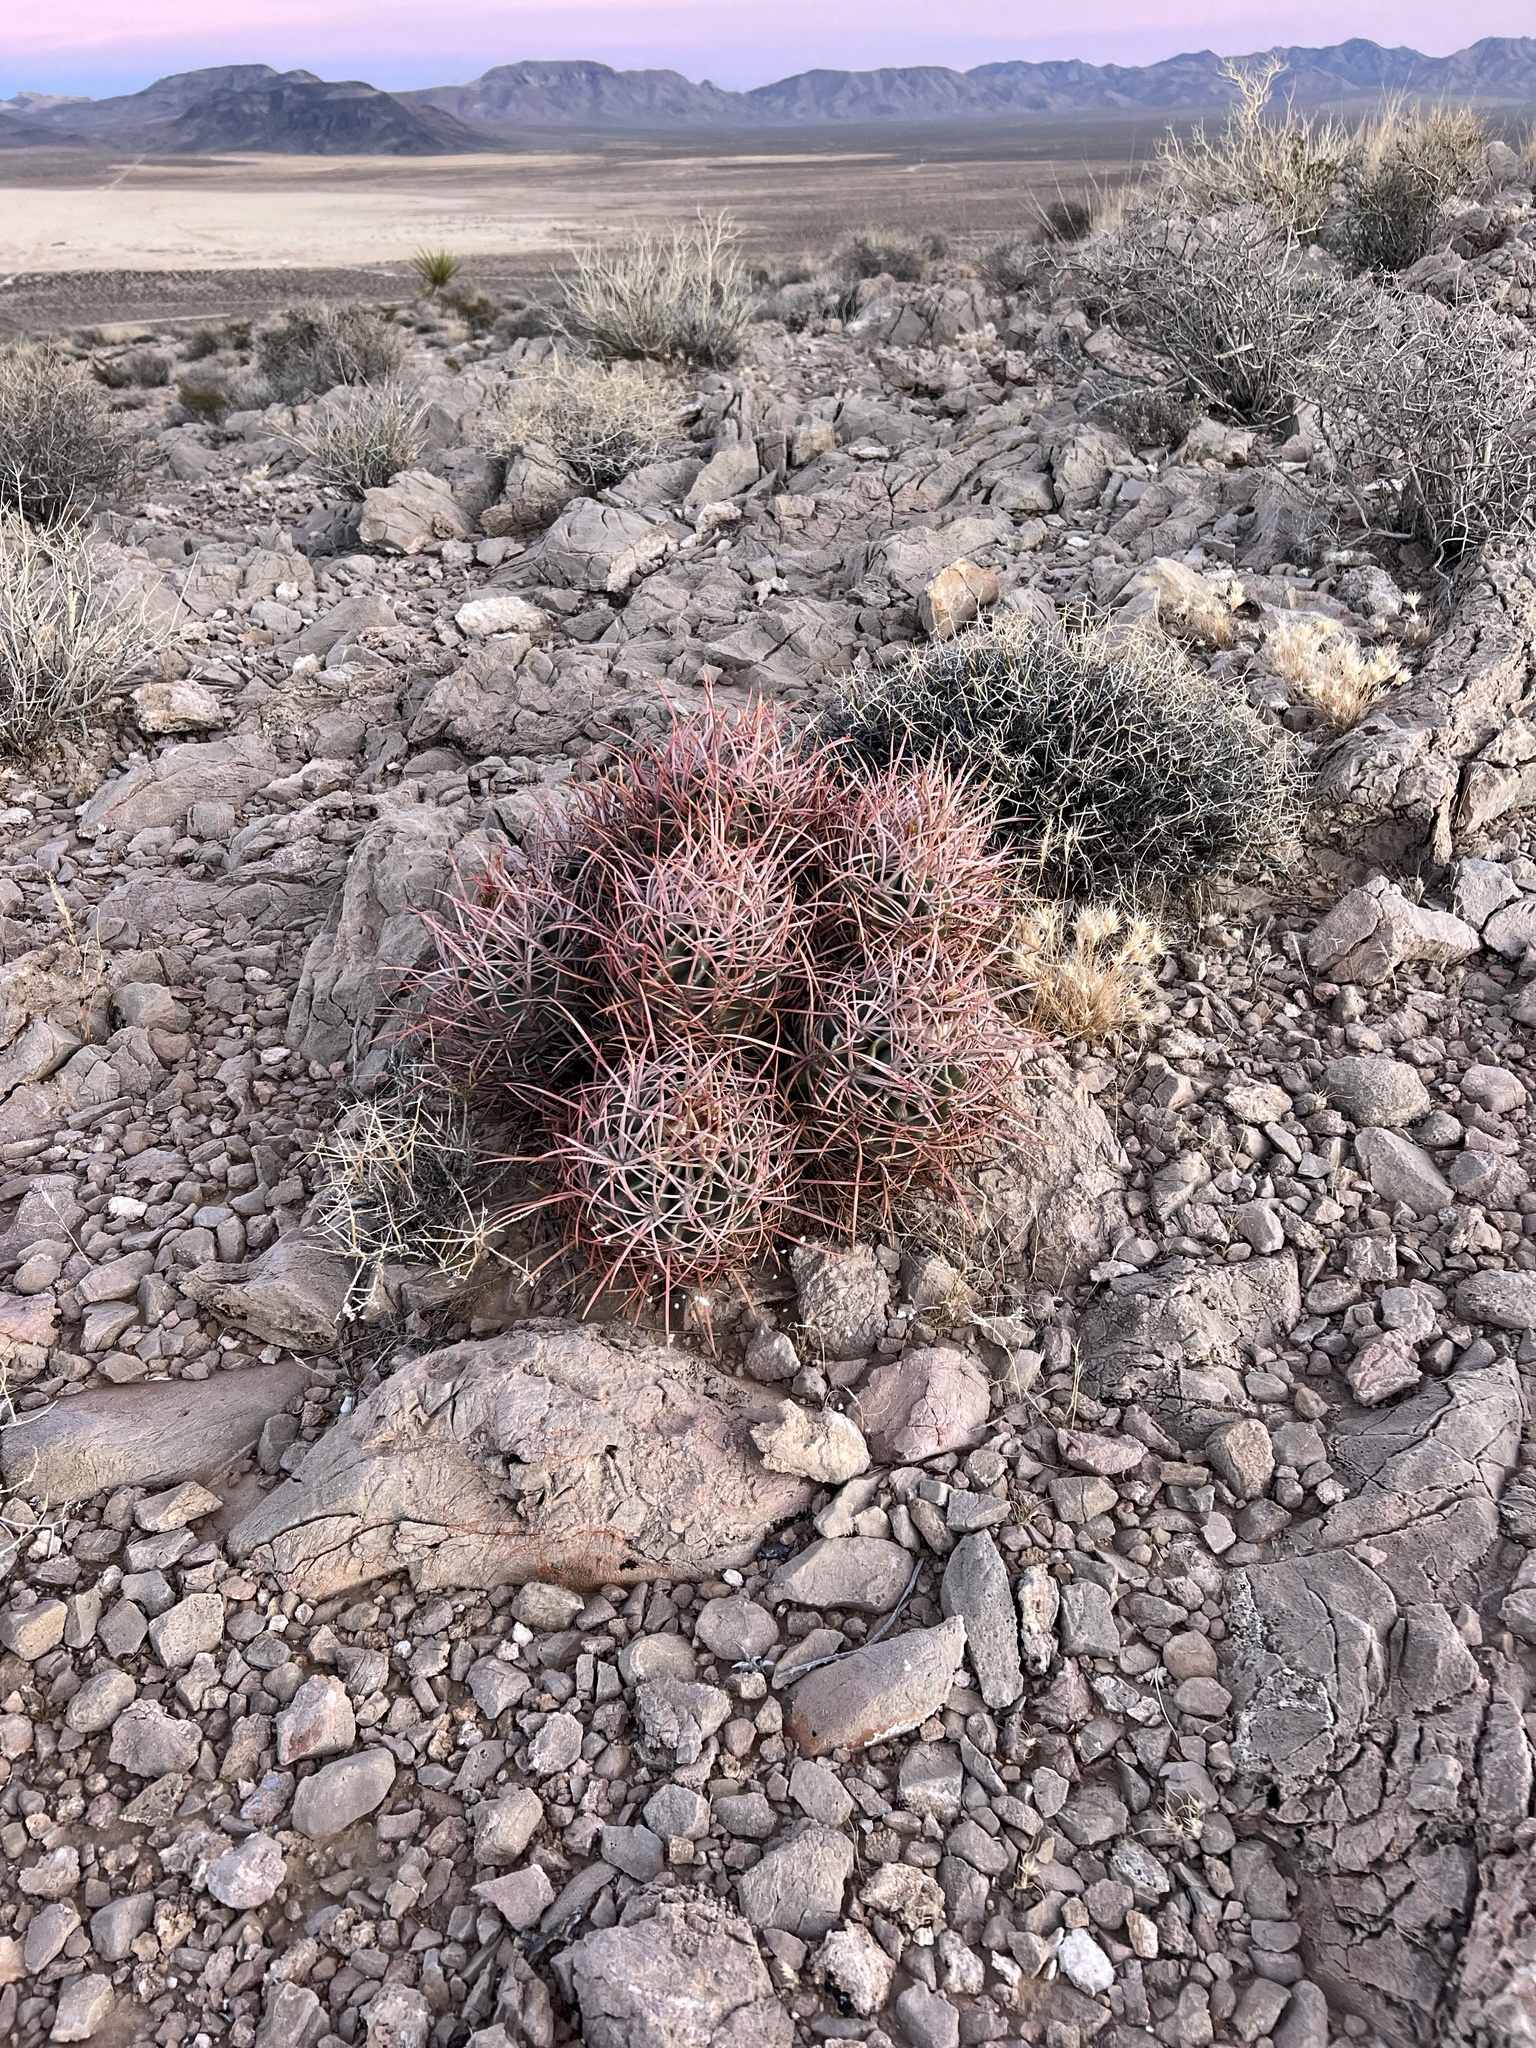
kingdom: Plantae
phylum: Tracheophyta
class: Magnoliopsida
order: Caryophyllales
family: Cactaceae
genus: Echinocactus
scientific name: Echinocactus polycephalus
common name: Cottontop cactus
